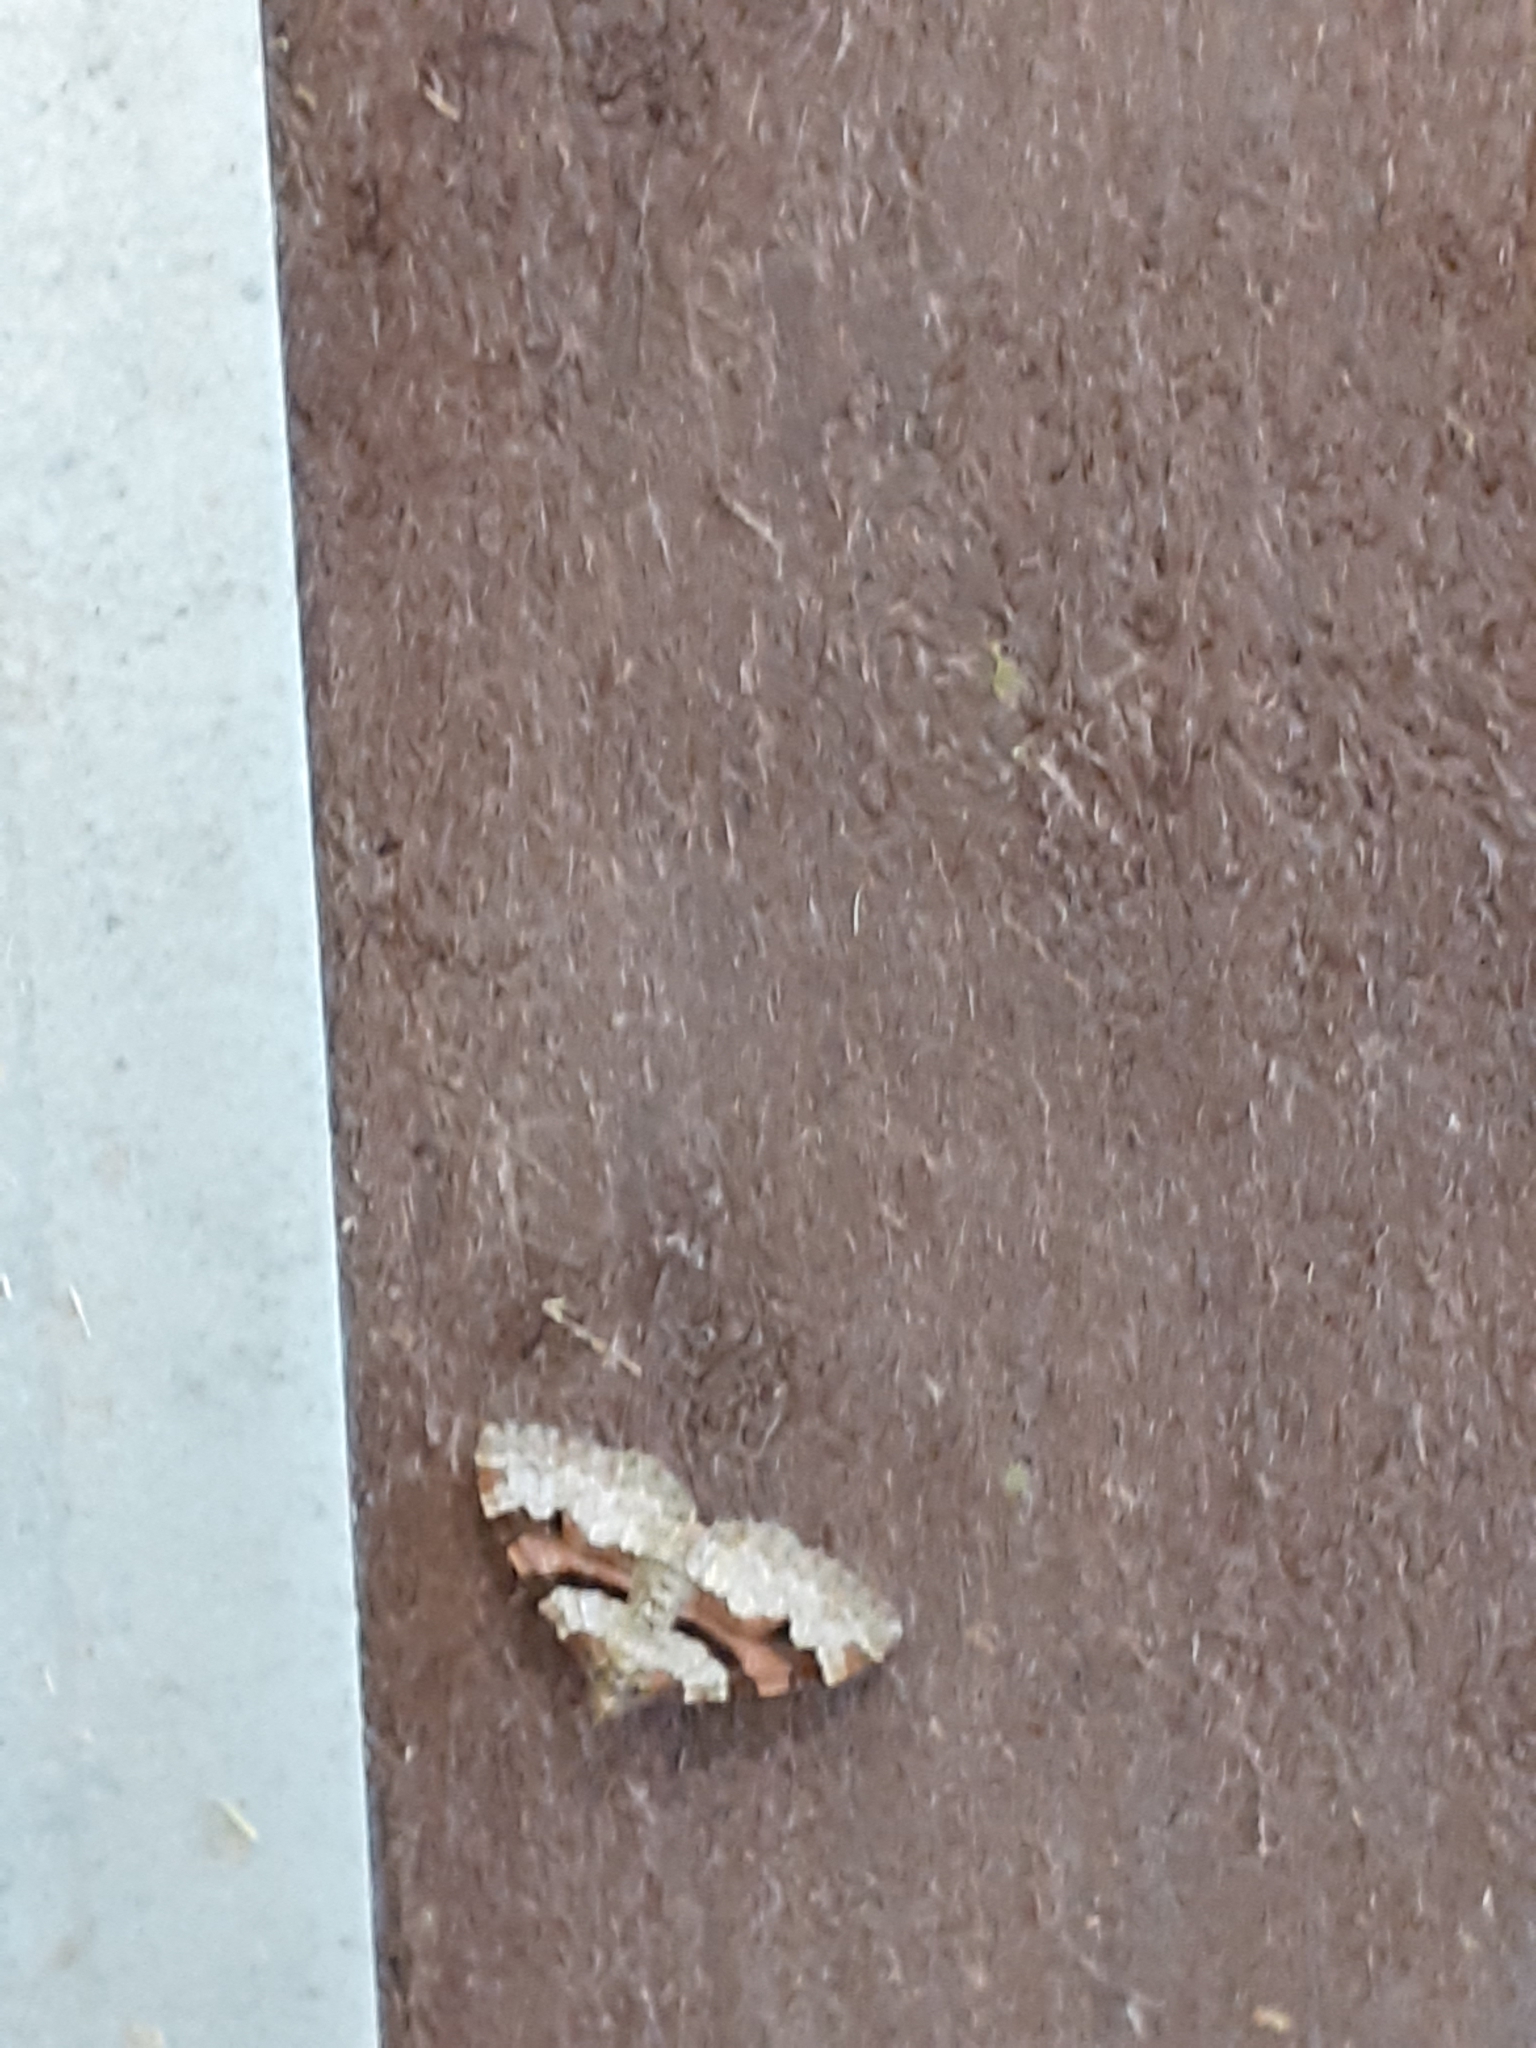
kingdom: Animalia
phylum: Arthropoda
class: Insecta
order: Lepidoptera
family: Geometridae
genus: Xanthorhoe
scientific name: Xanthorhoe designata
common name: Flame carpet
